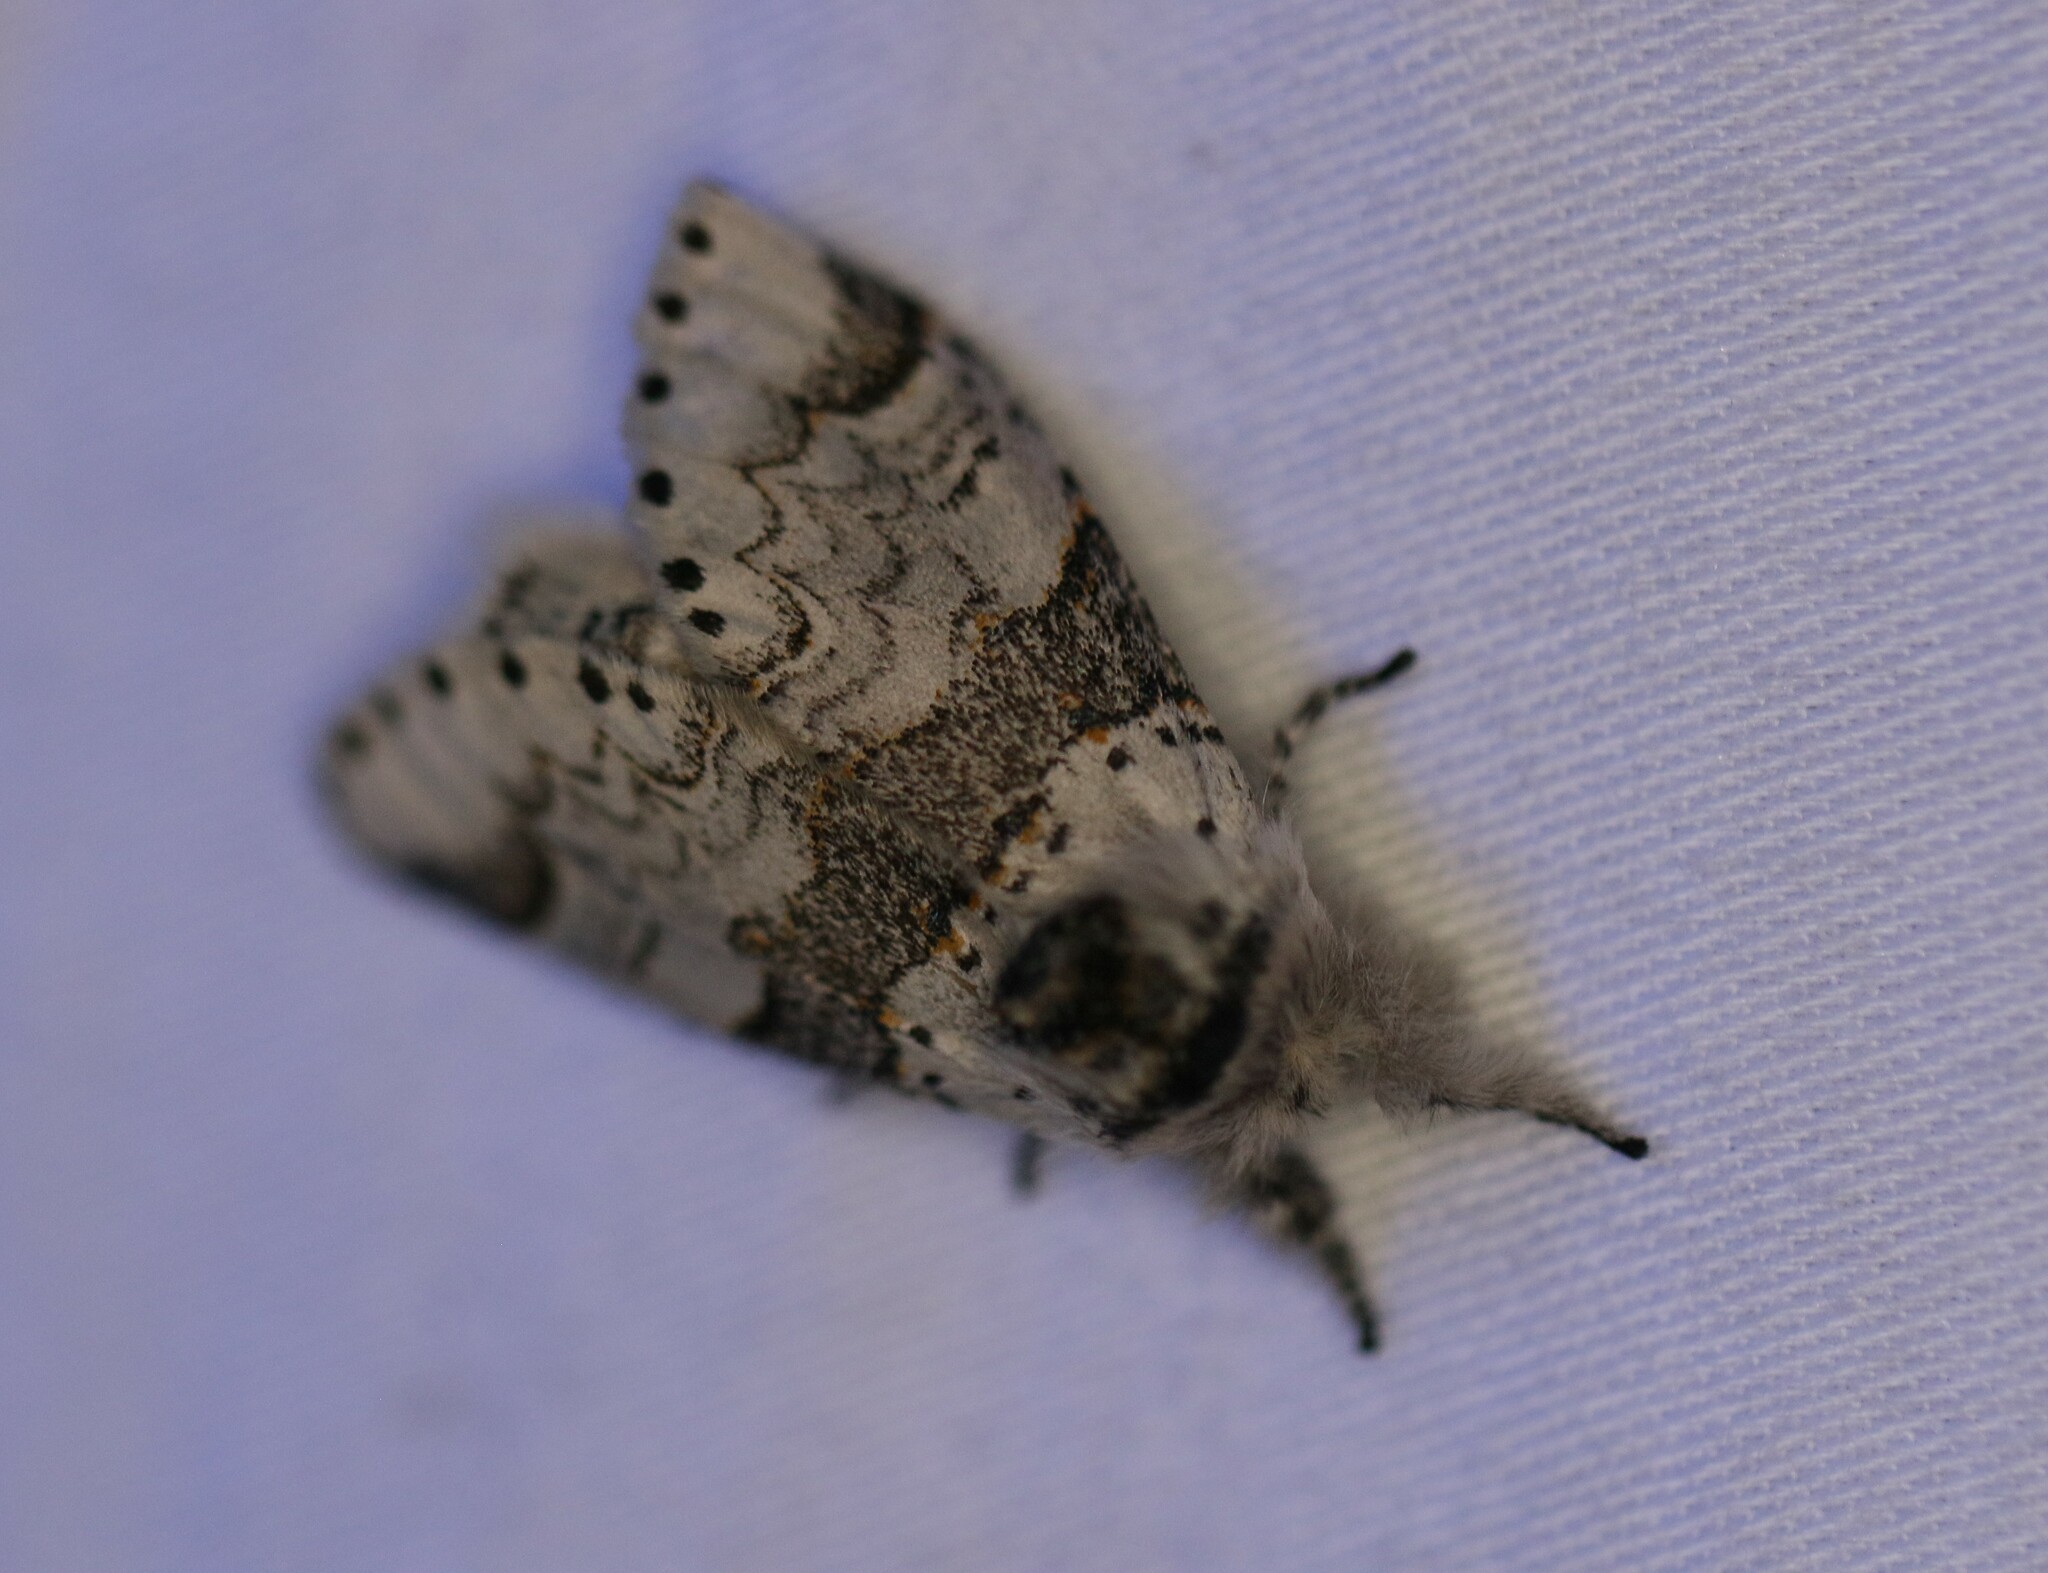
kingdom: Animalia
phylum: Arthropoda
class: Insecta
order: Lepidoptera
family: Notodontidae
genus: Furcula
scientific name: Furcula occidentalis
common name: Western furcula moth
